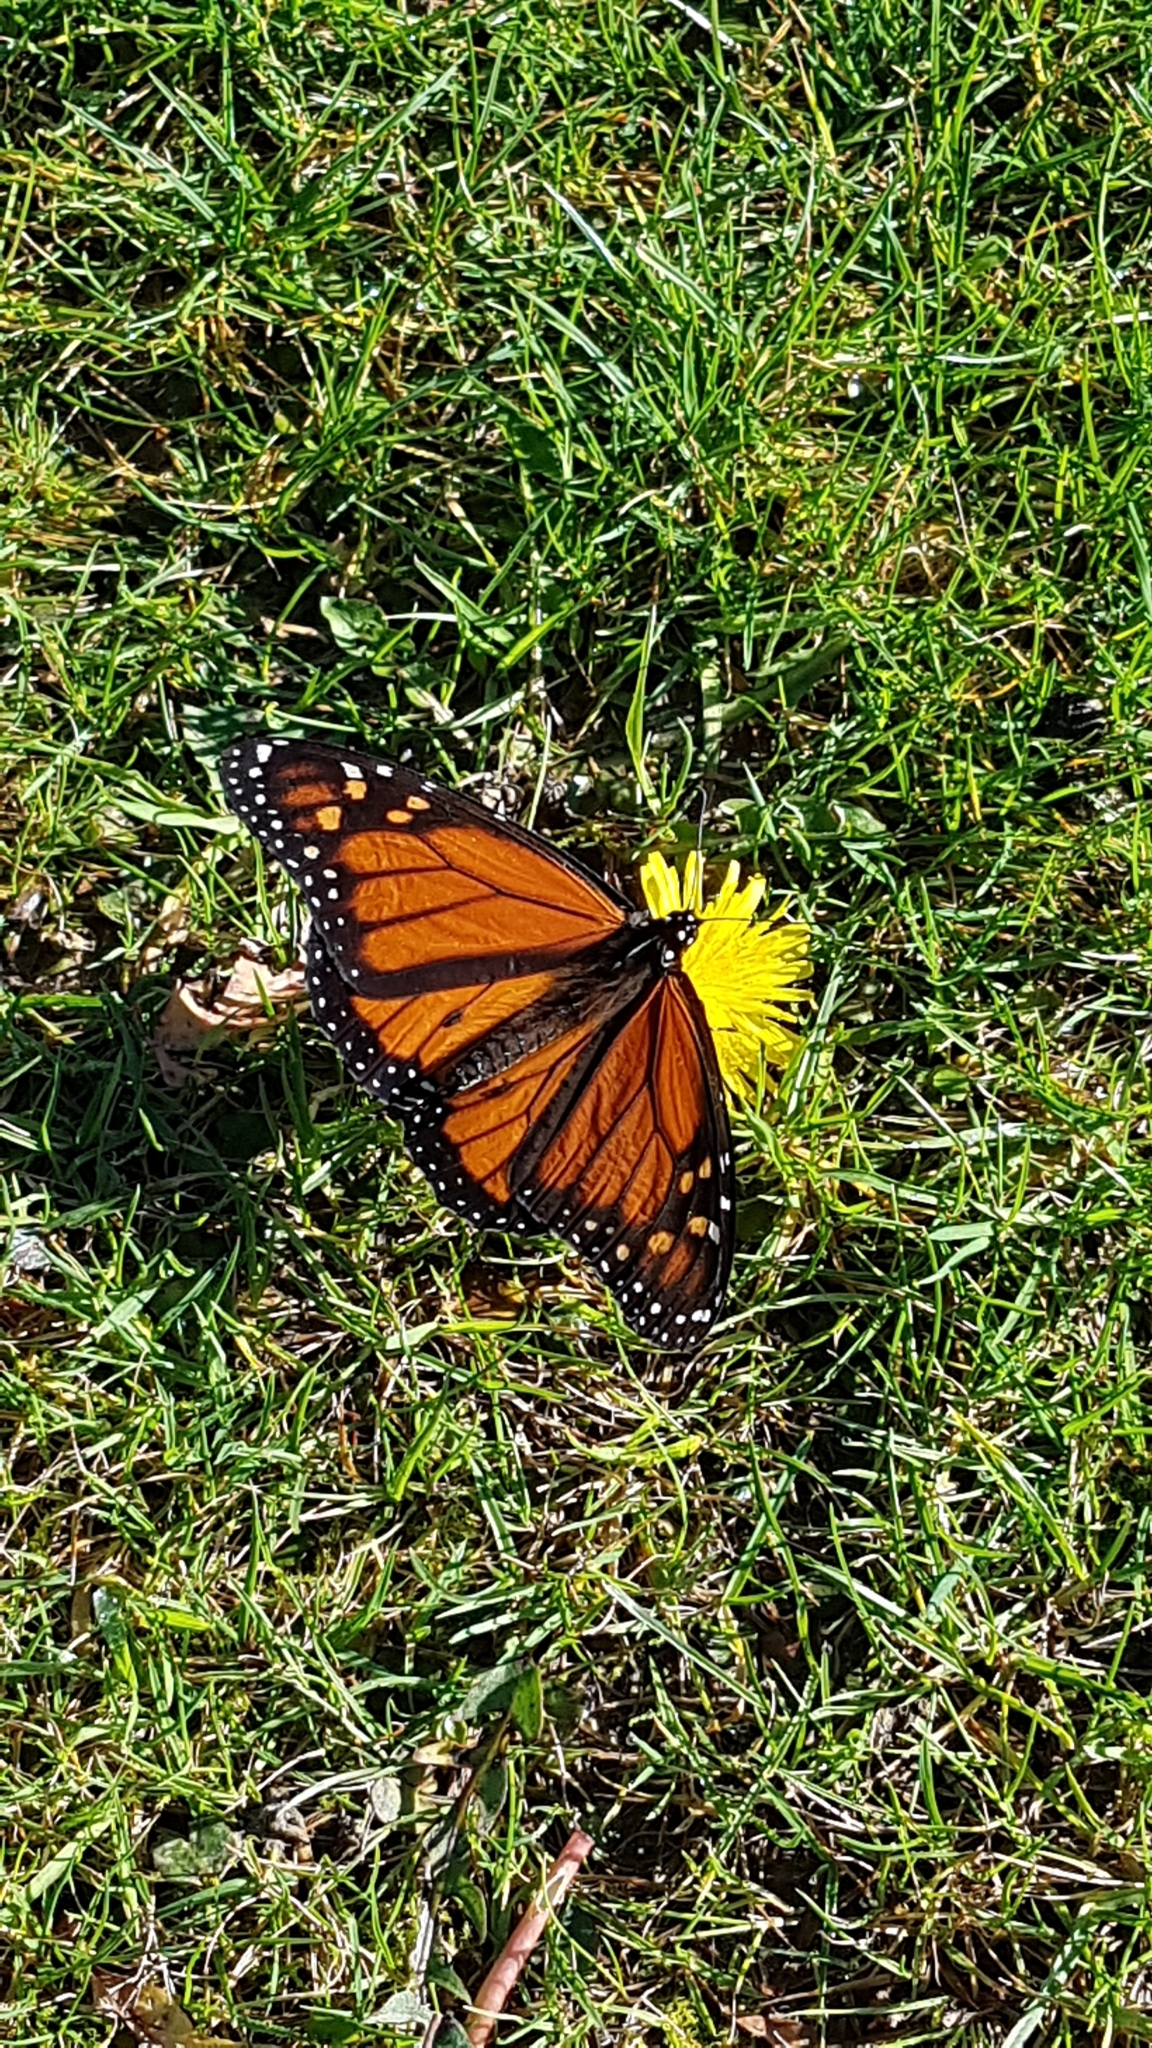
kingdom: Animalia
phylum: Arthropoda
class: Insecta
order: Lepidoptera
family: Nymphalidae
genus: Danaus
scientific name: Danaus plexippus
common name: Monarch
